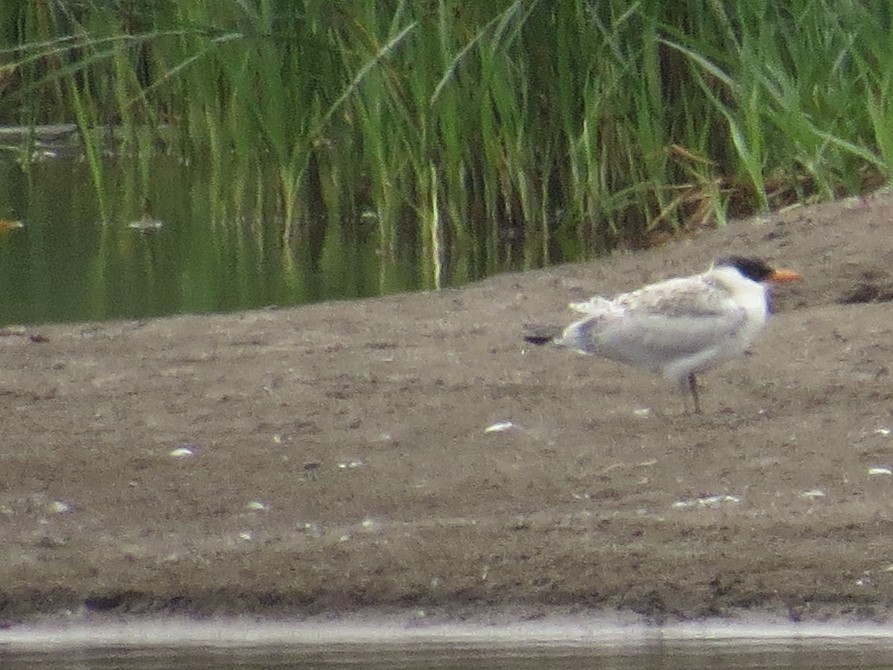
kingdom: Animalia
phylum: Chordata
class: Aves
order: Charadriiformes
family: Laridae
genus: Hydroprogne
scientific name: Hydroprogne caspia
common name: Caspian tern
